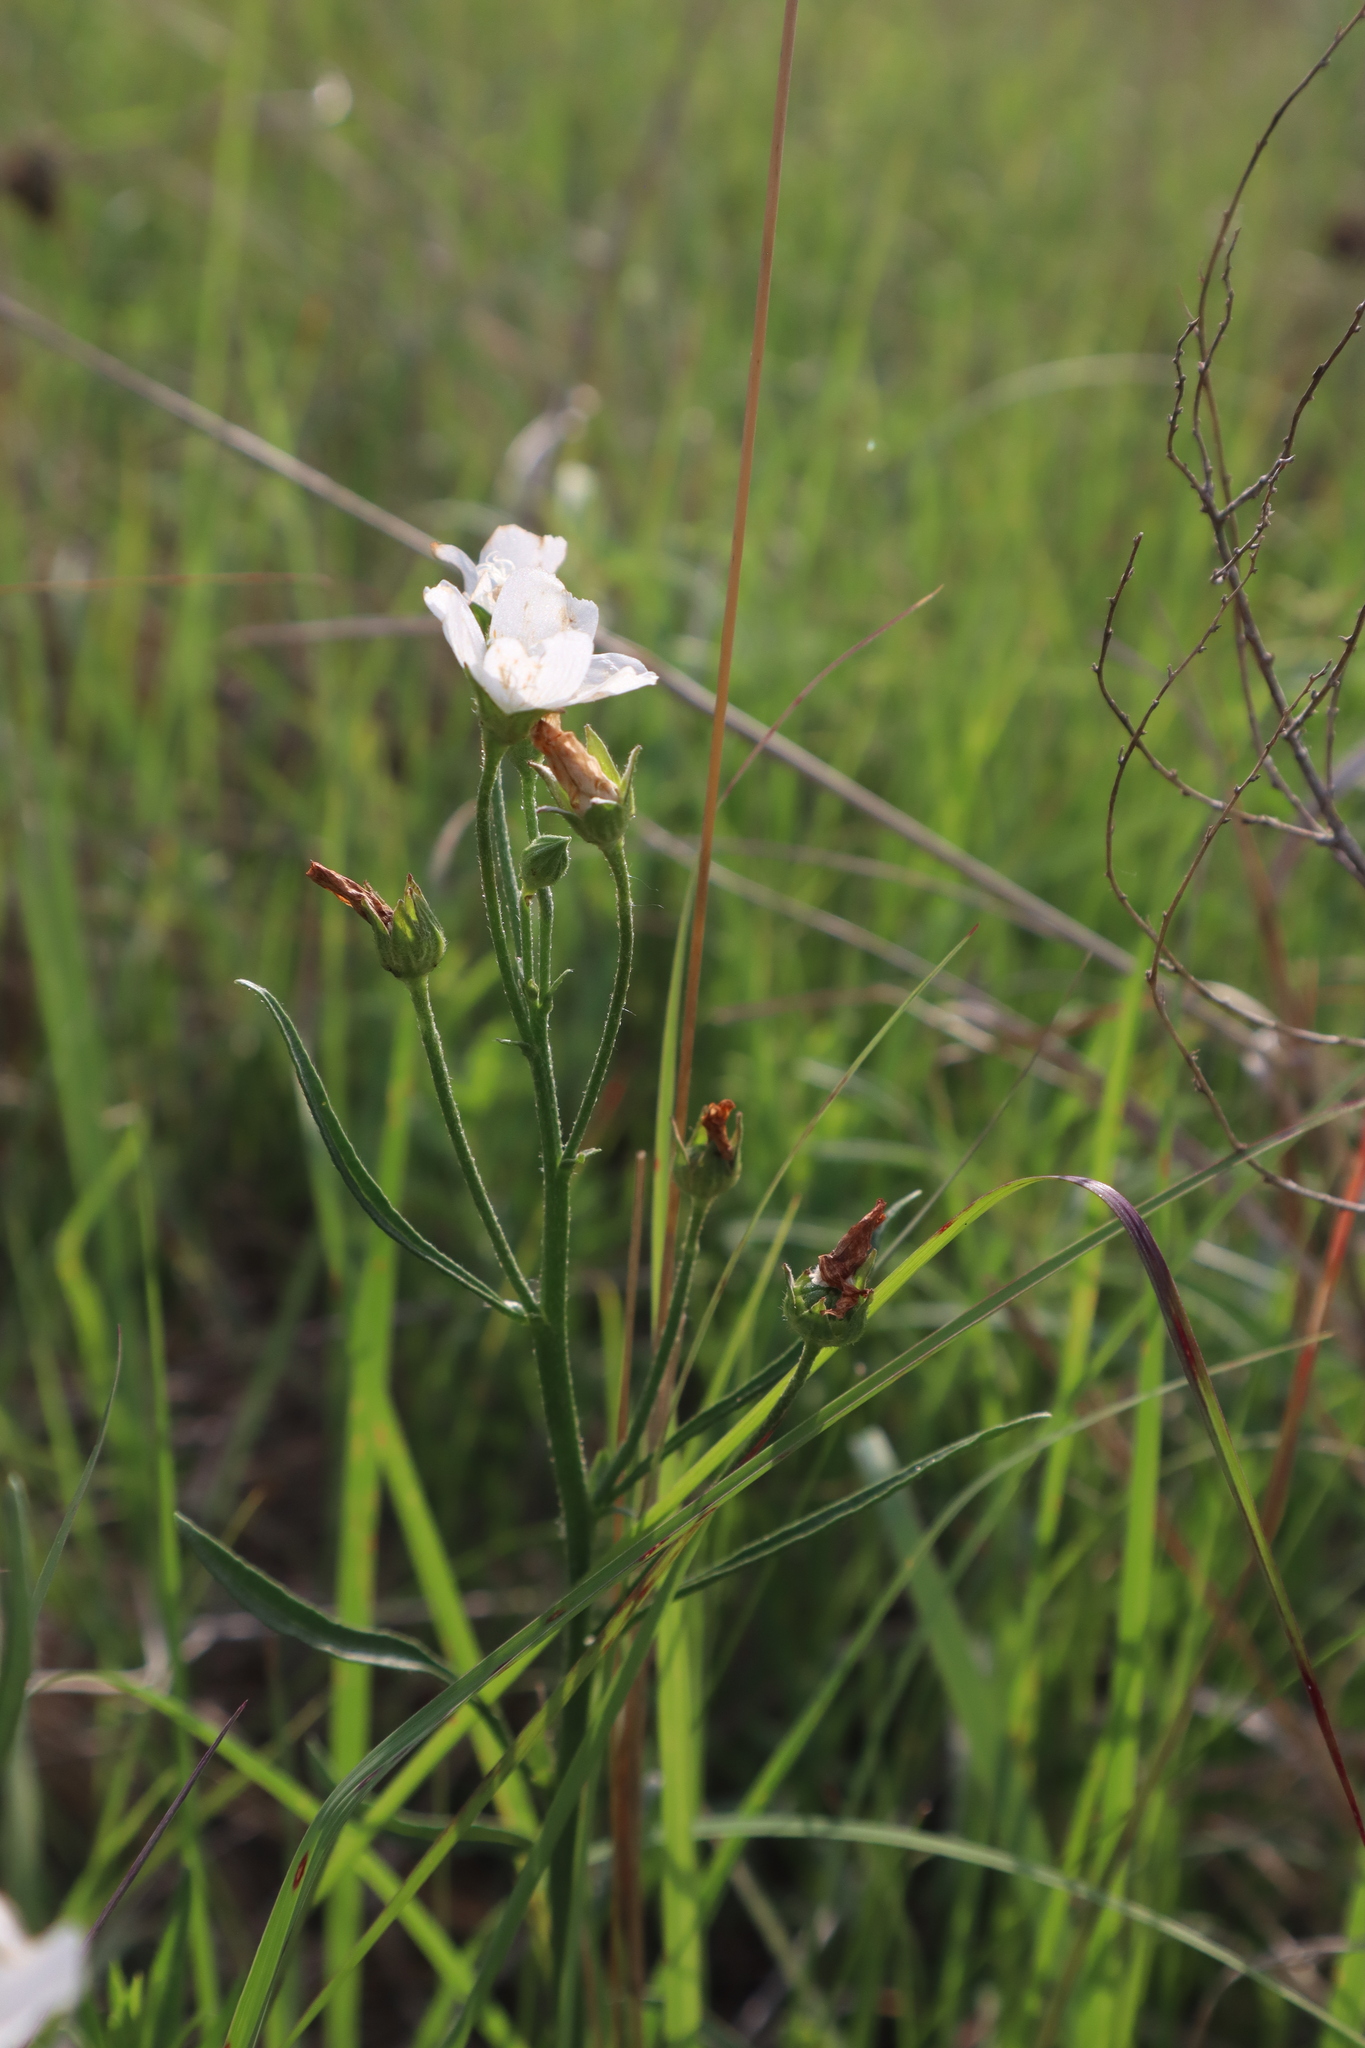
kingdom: Plantae
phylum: Tracheophyta
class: Magnoliopsida
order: Malvales
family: Malvaceae
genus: Callirhoe
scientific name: Callirhoe alcaeoides
